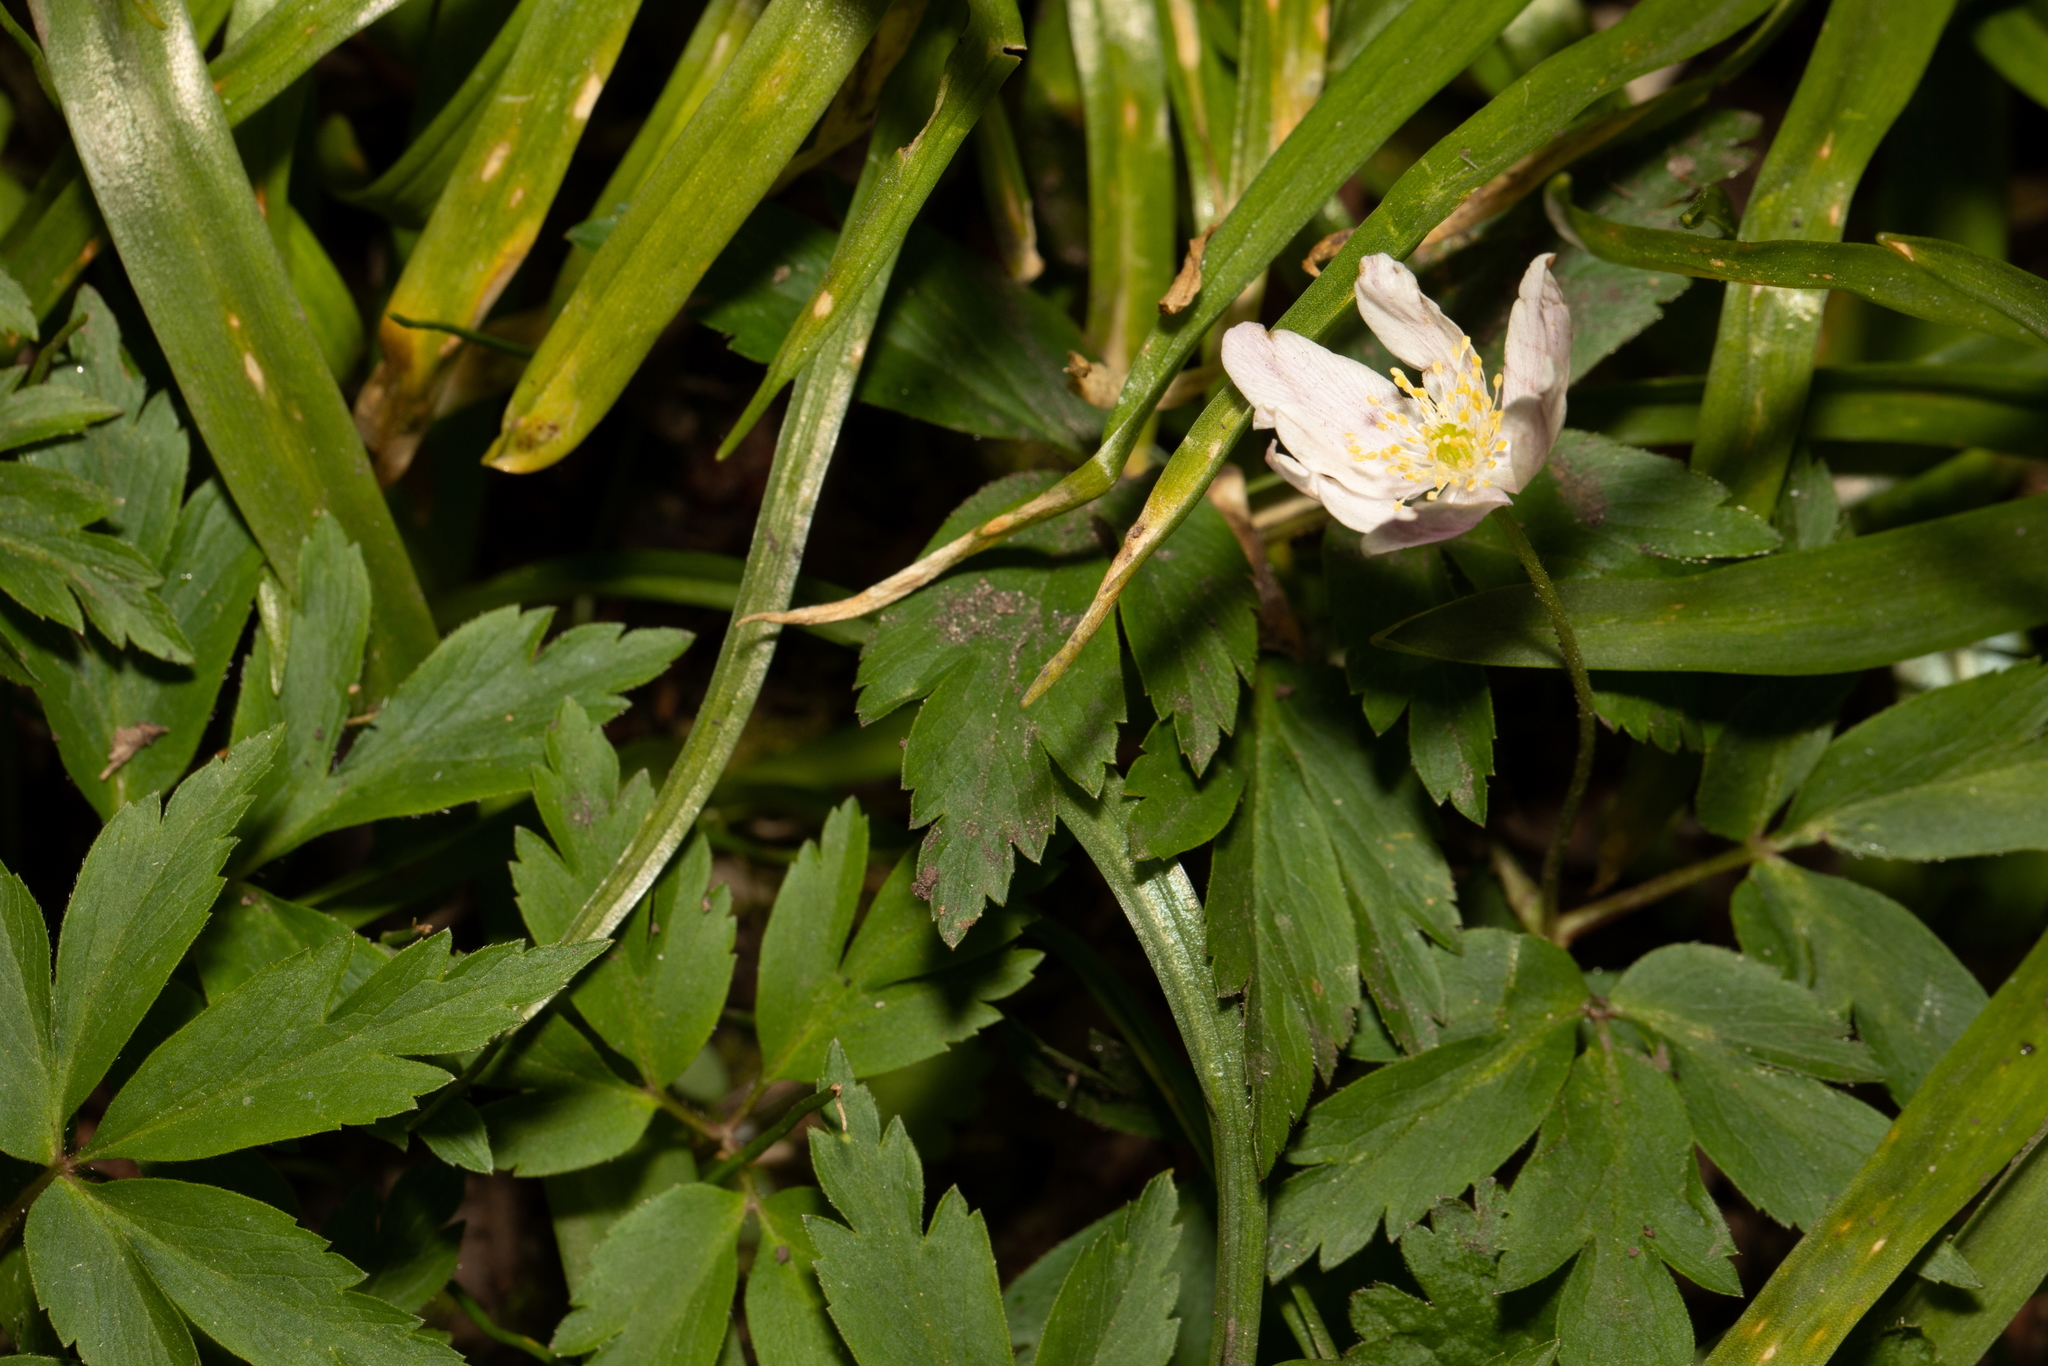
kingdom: Plantae
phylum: Tracheophyta
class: Magnoliopsida
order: Ranunculales
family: Ranunculaceae
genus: Anemone
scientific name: Anemone nemorosa
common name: Wood anemone
